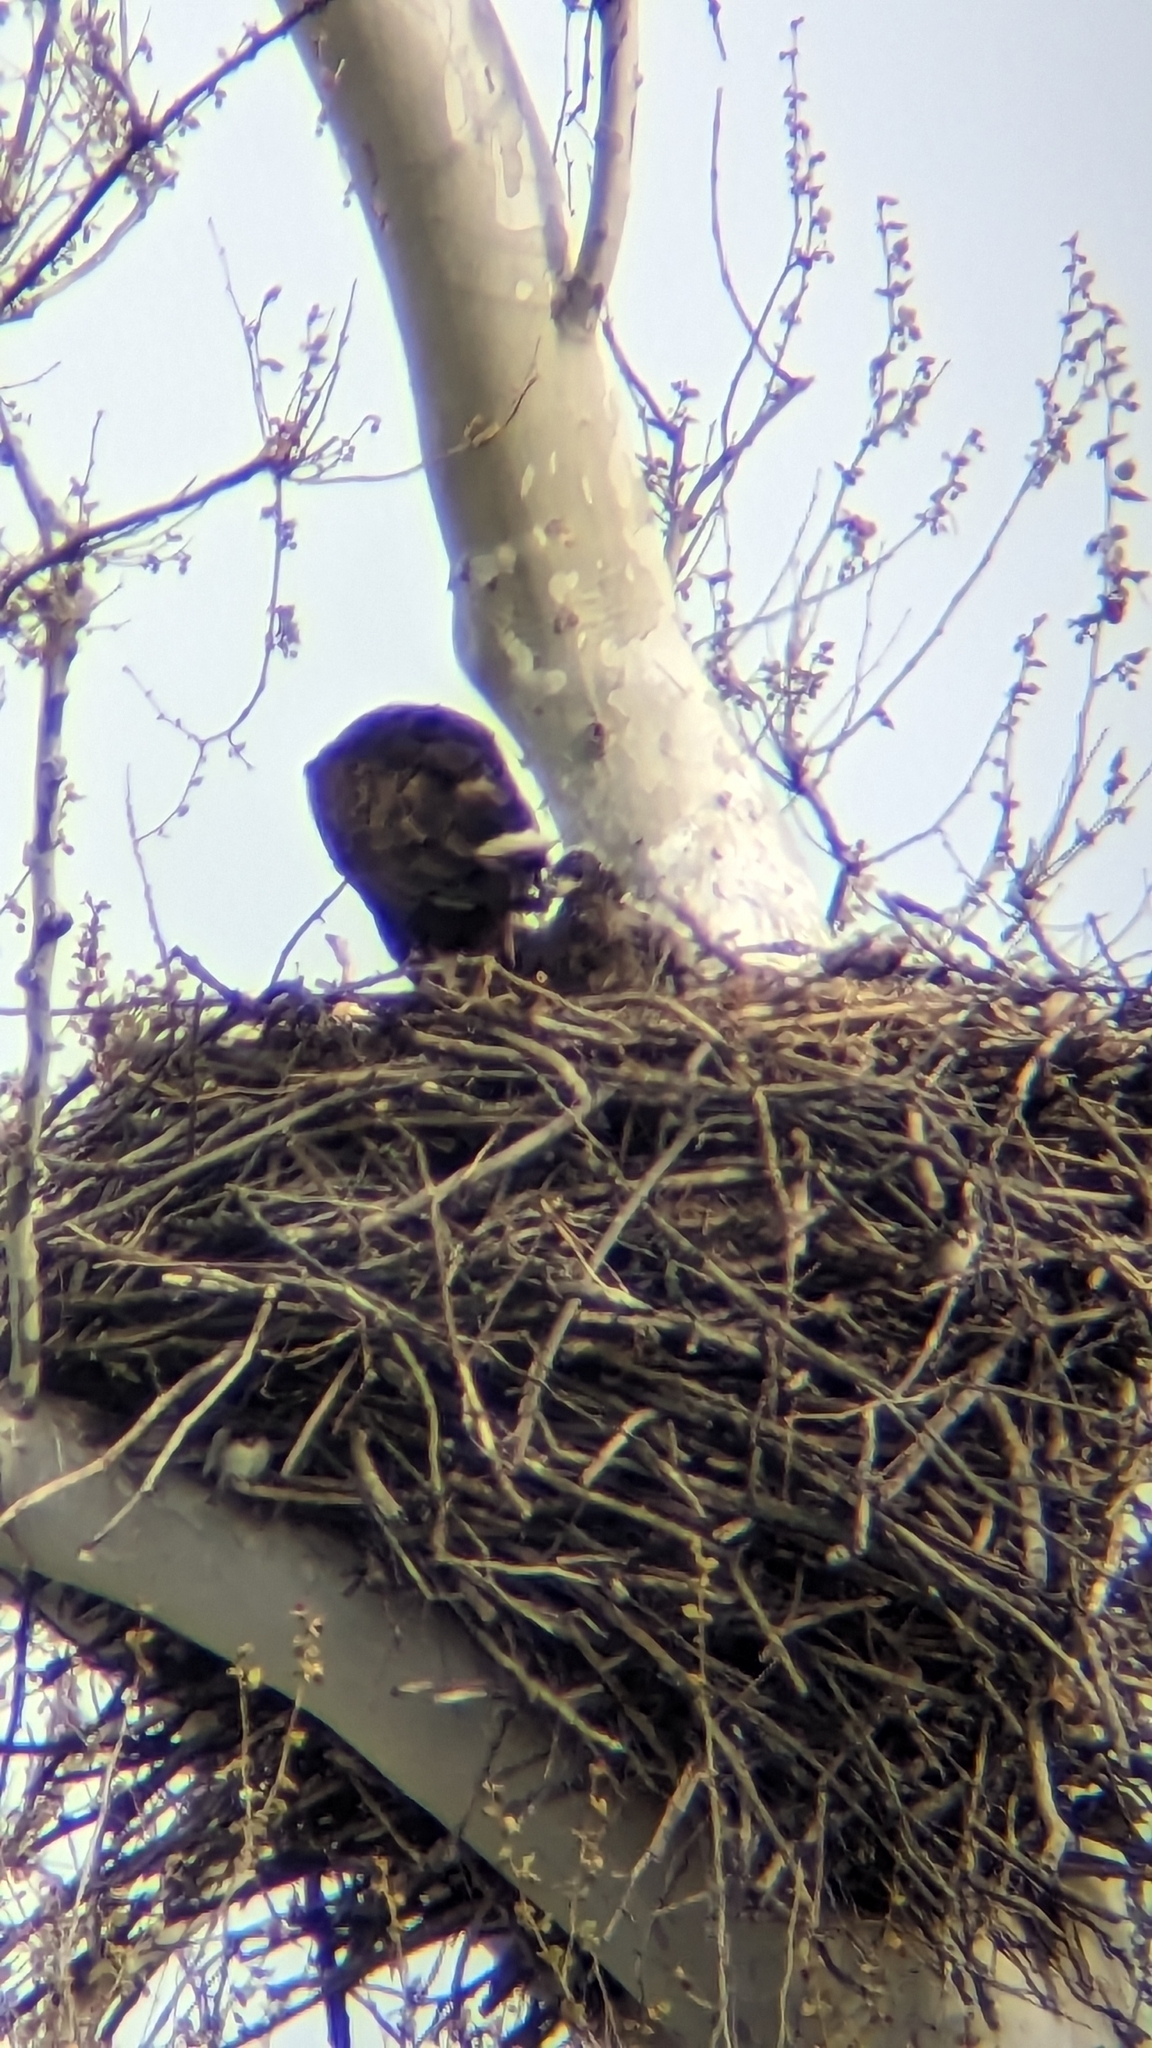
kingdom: Animalia
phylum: Chordata
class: Aves
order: Accipitriformes
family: Accipitridae
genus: Haliaeetus
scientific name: Haliaeetus leucocephalus
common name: Bald eagle
